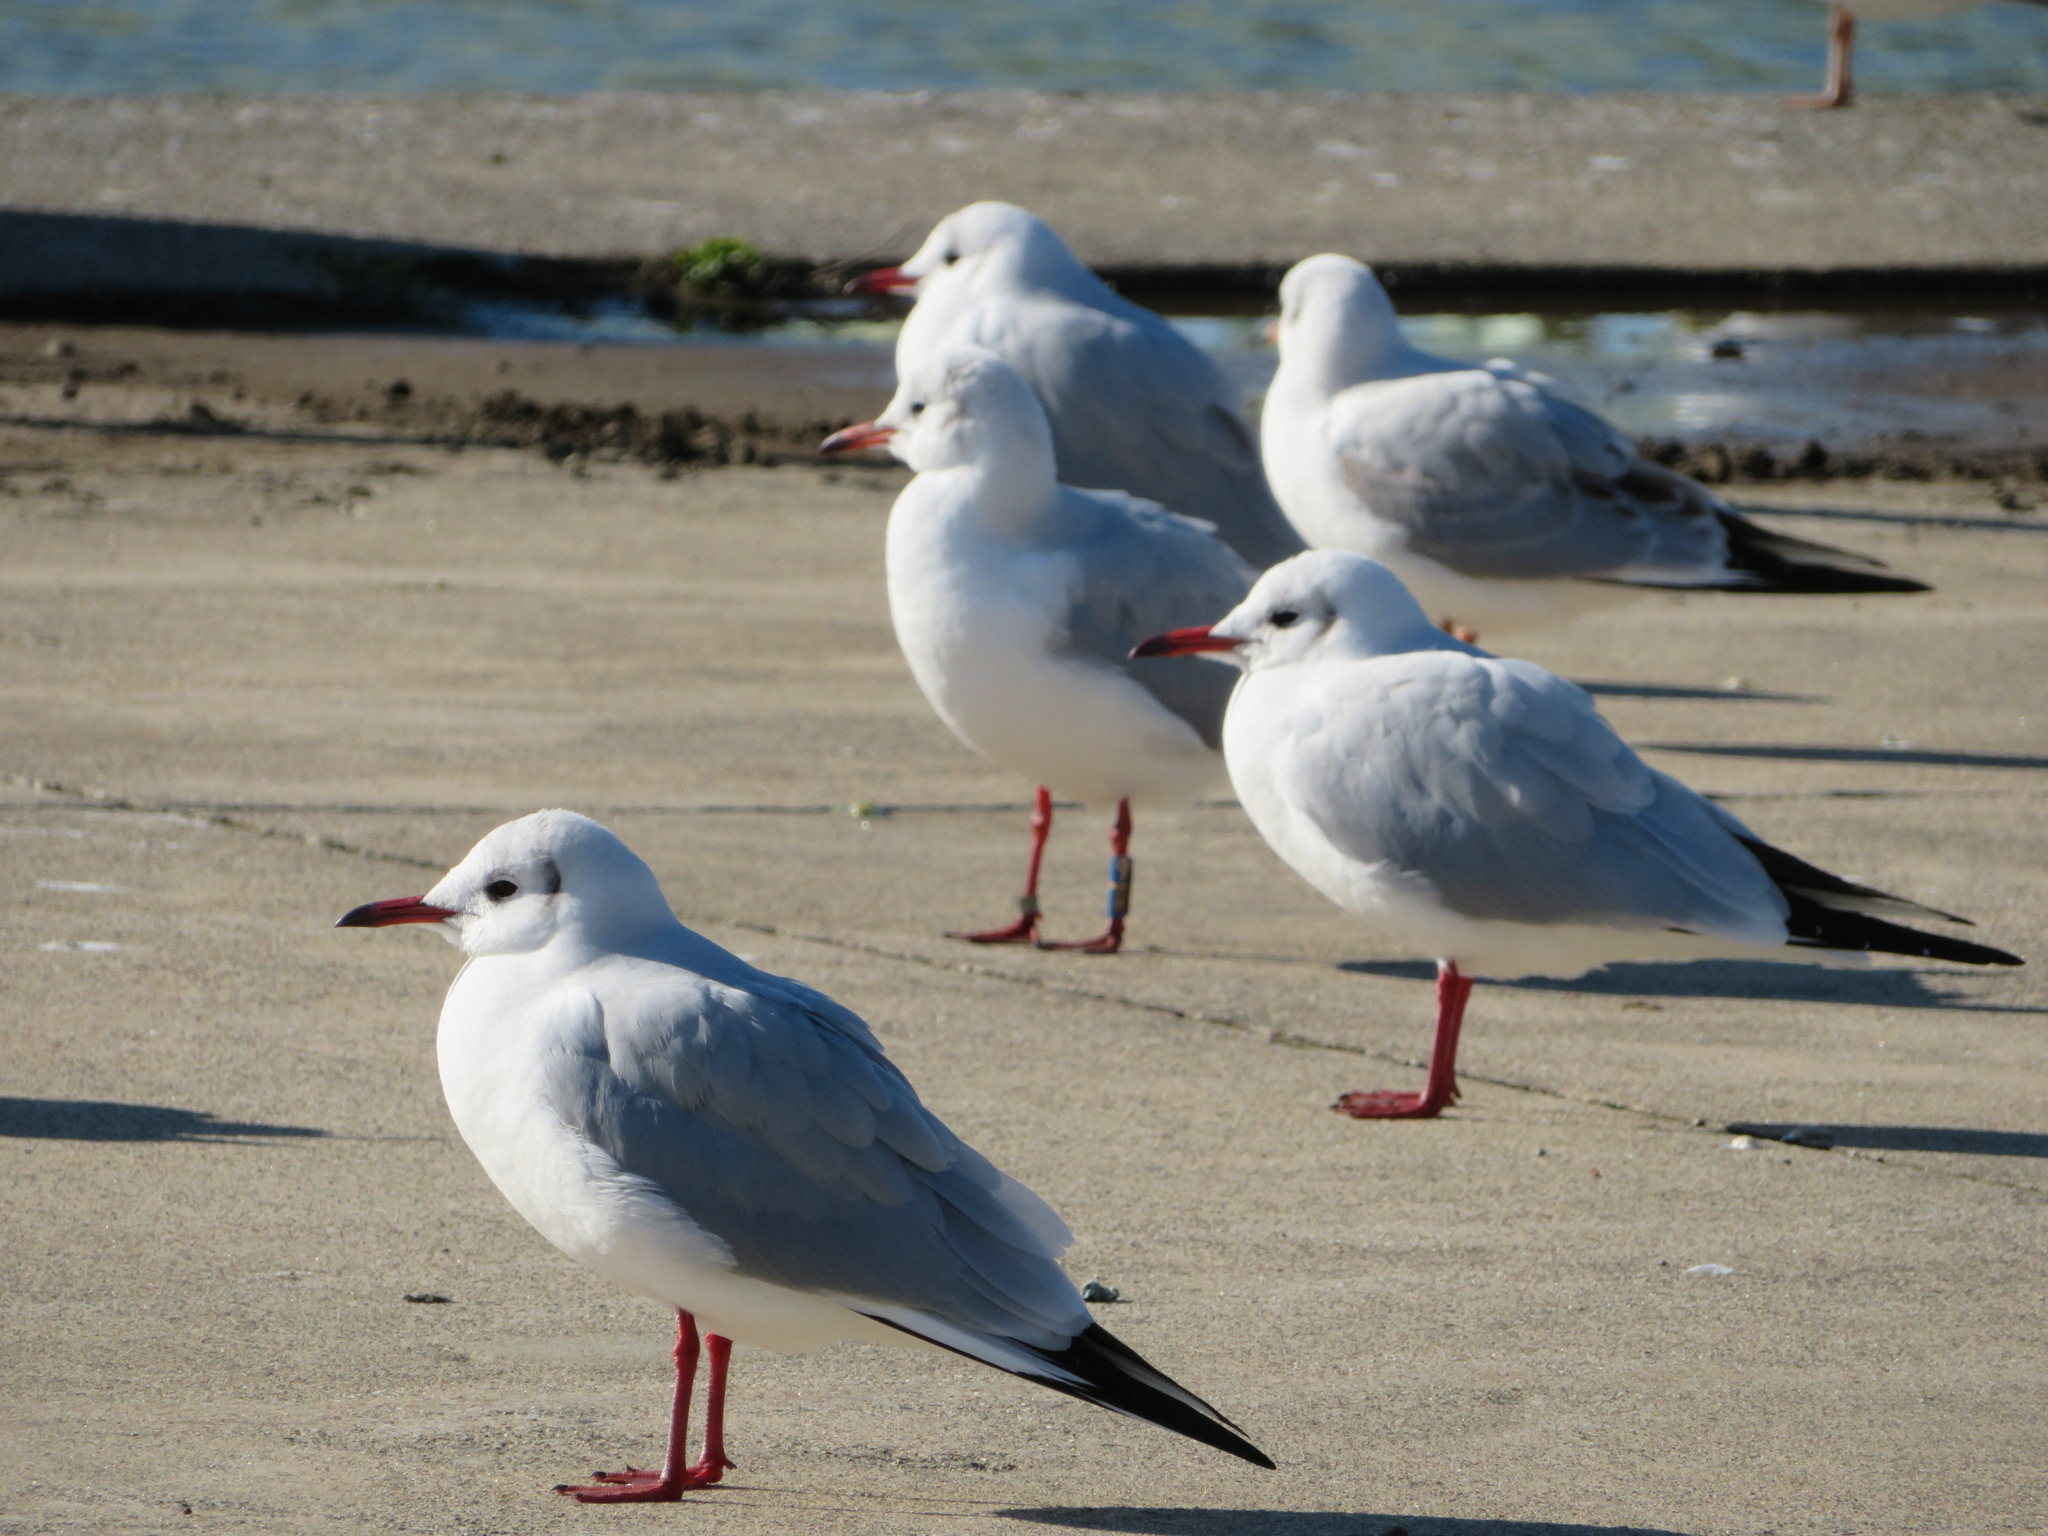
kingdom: Animalia
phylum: Chordata
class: Aves
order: Charadriiformes
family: Laridae
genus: Chroicocephalus
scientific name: Chroicocephalus ridibundus
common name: Black-headed gull
